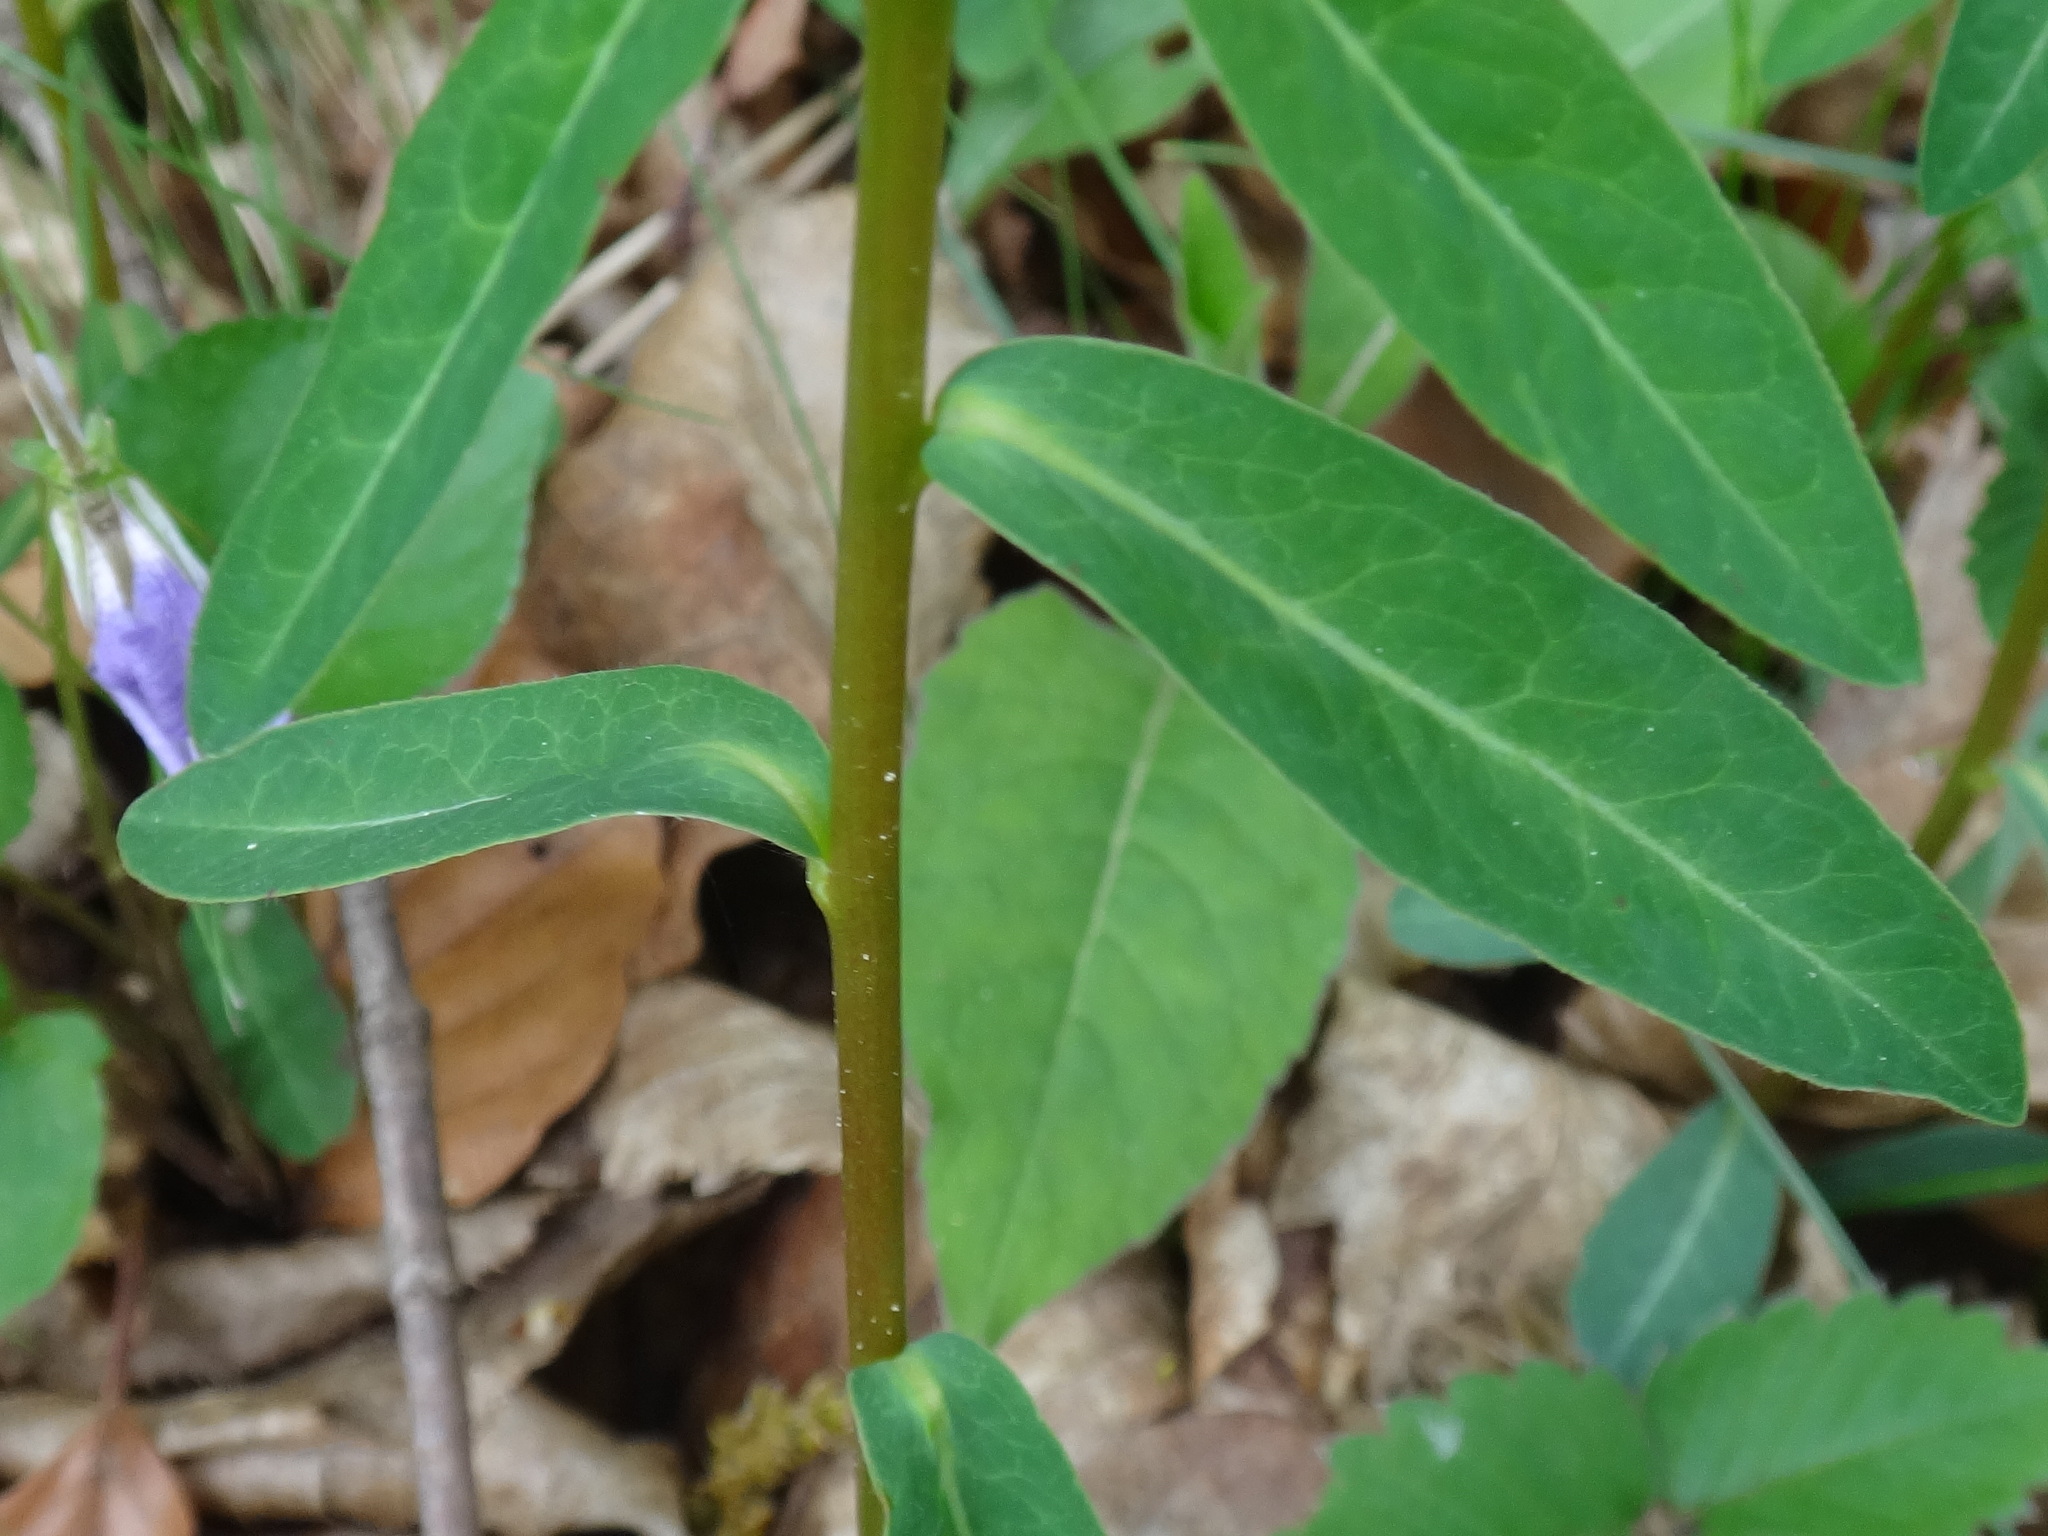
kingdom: Plantae
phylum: Tracheophyta
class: Magnoliopsida
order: Malpighiales
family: Euphorbiaceae
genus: Euphorbia
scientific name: Euphorbia dulcis
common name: Sweet spurge
